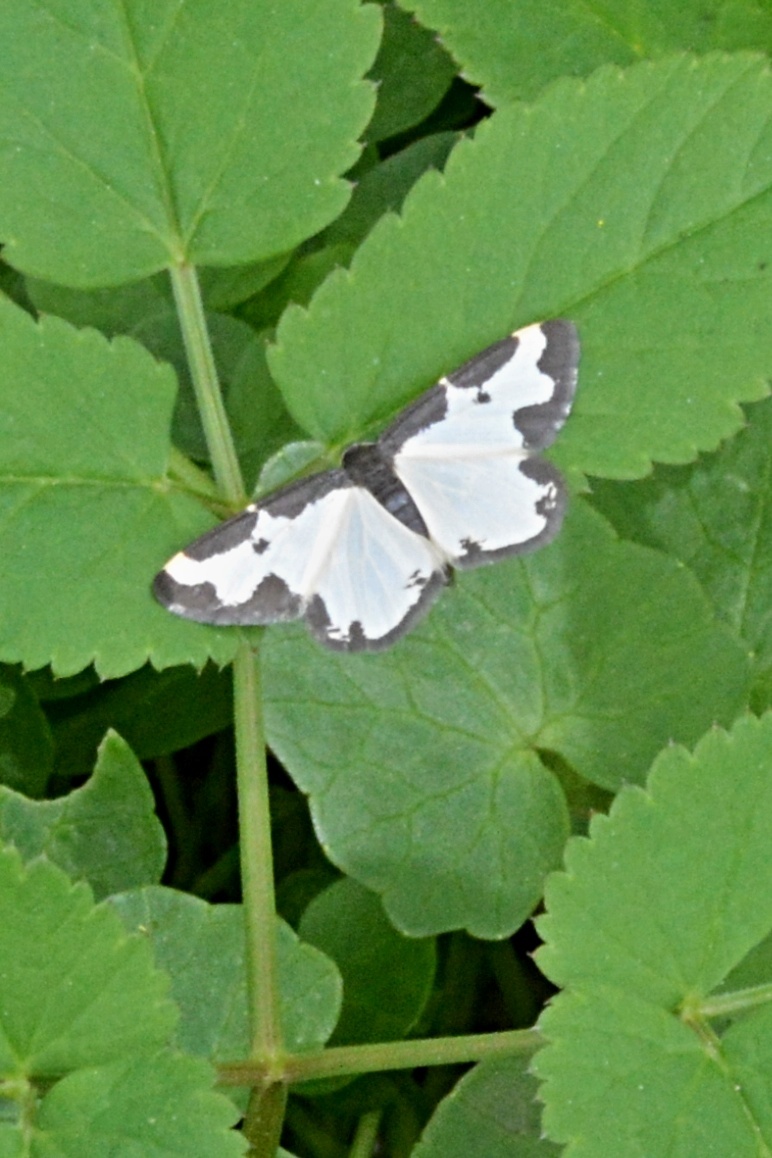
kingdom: Animalia
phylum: Arthropoda
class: Insecta
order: Lepidoptera
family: Geometridae
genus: Lomaspilis
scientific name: Lomaspilis marginata
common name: Clouded border
